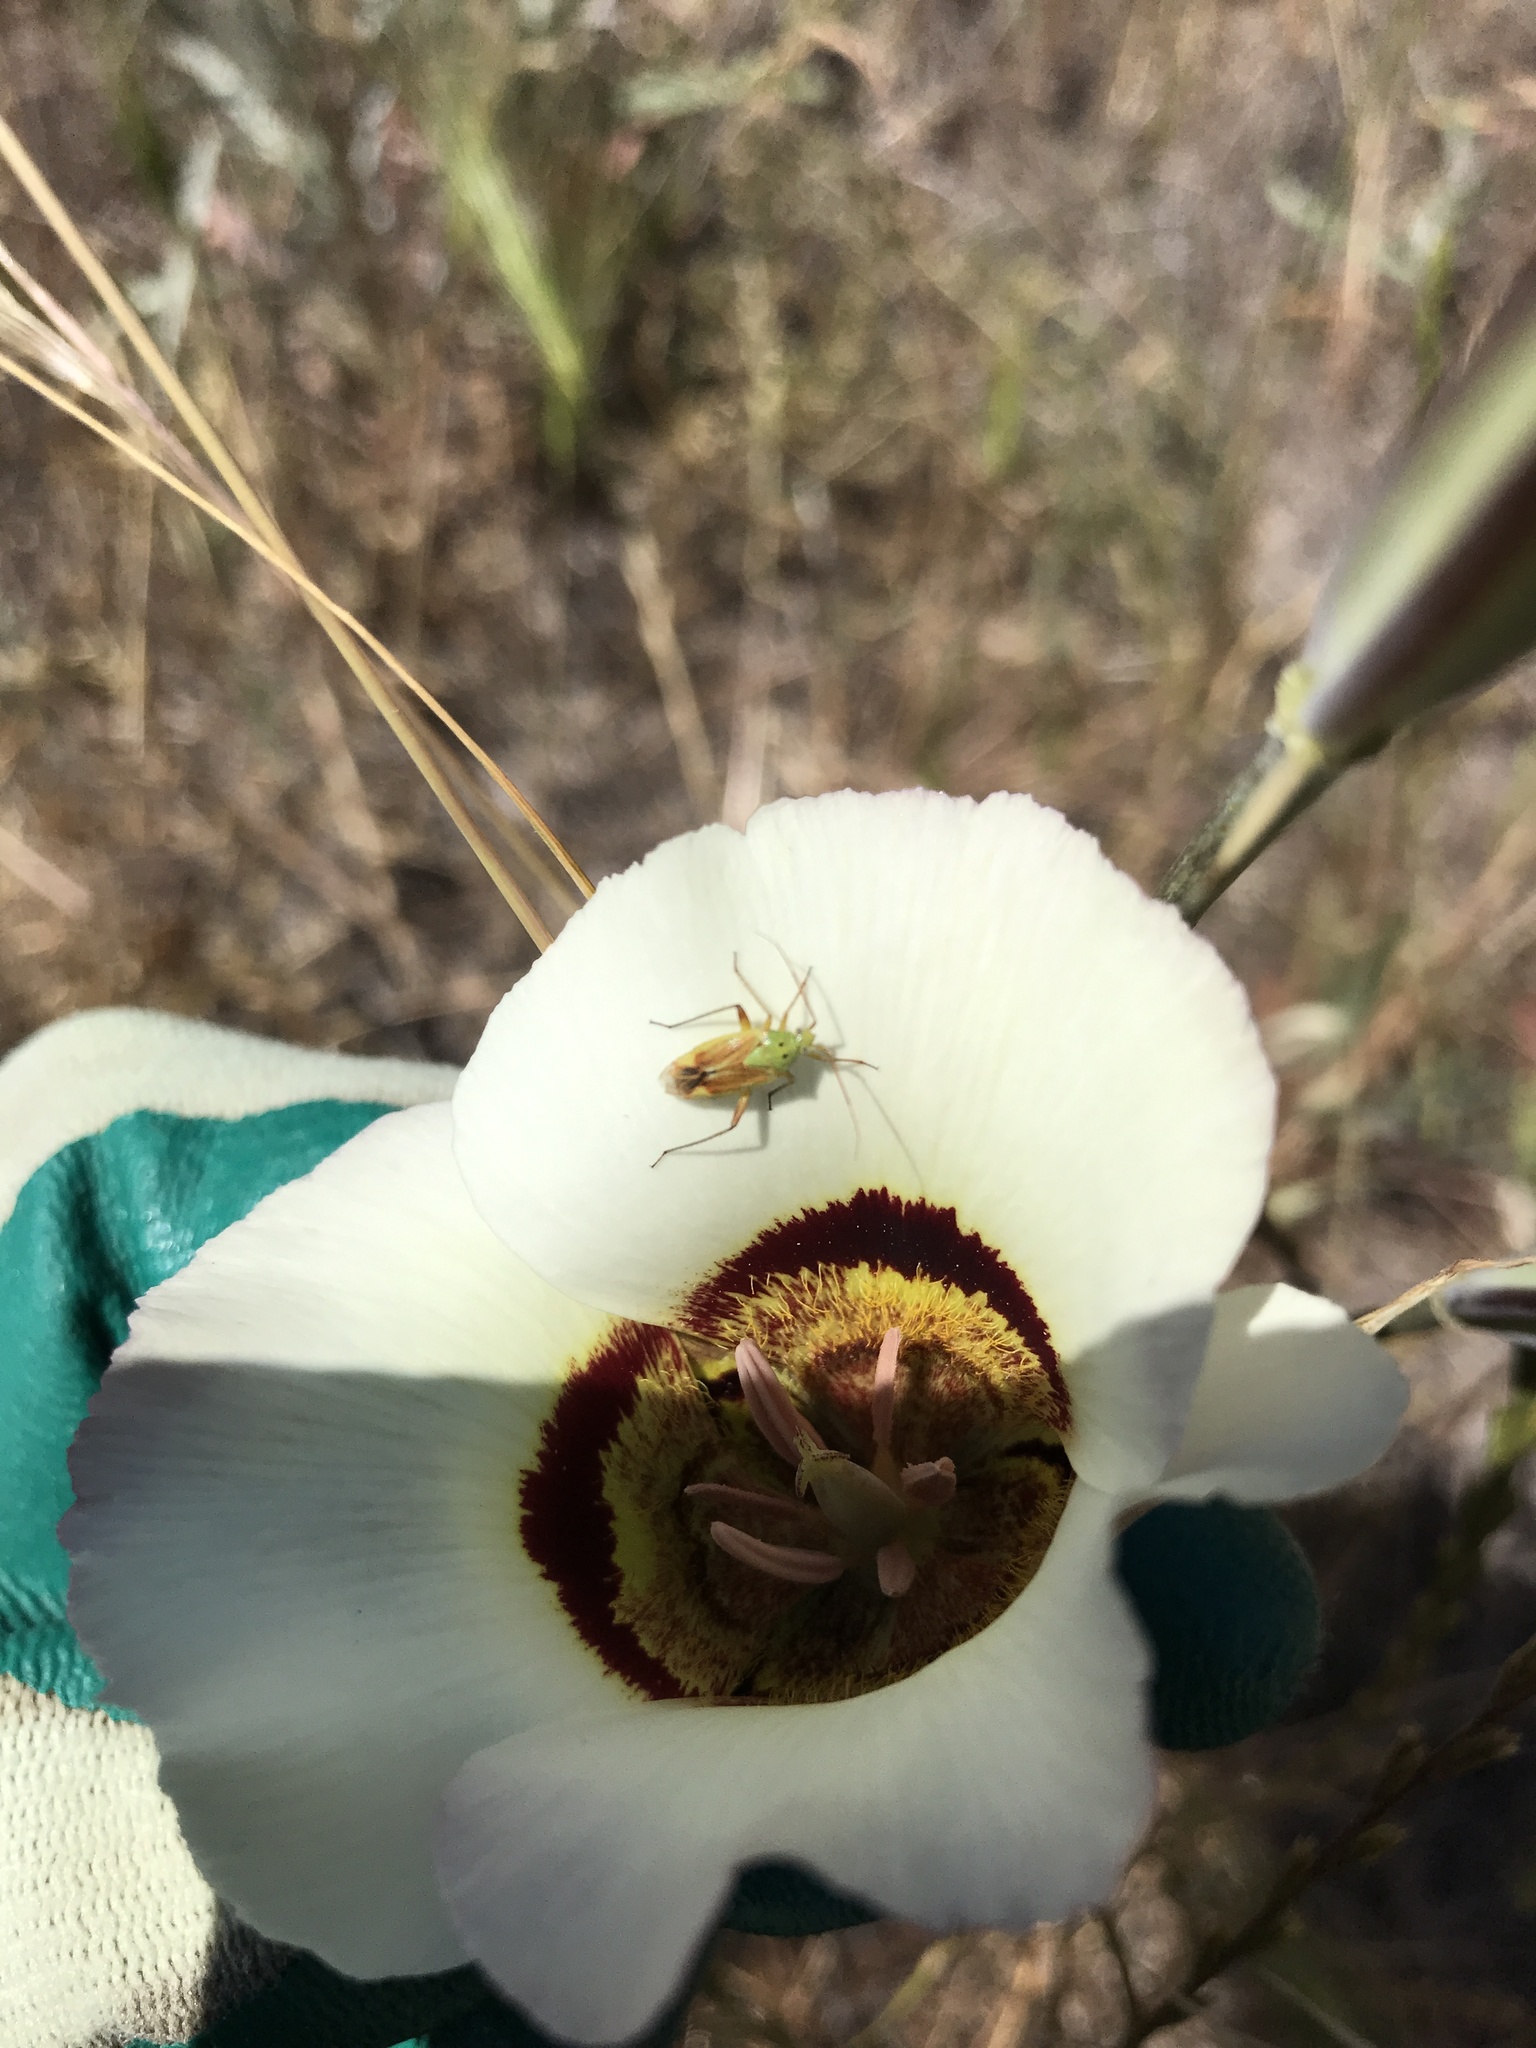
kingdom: Animalia
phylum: Arthropoda
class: Insecta
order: Hemiptera
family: Miridae
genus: Closterotomus
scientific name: Closterotomus norvegicus
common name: Plant bug
